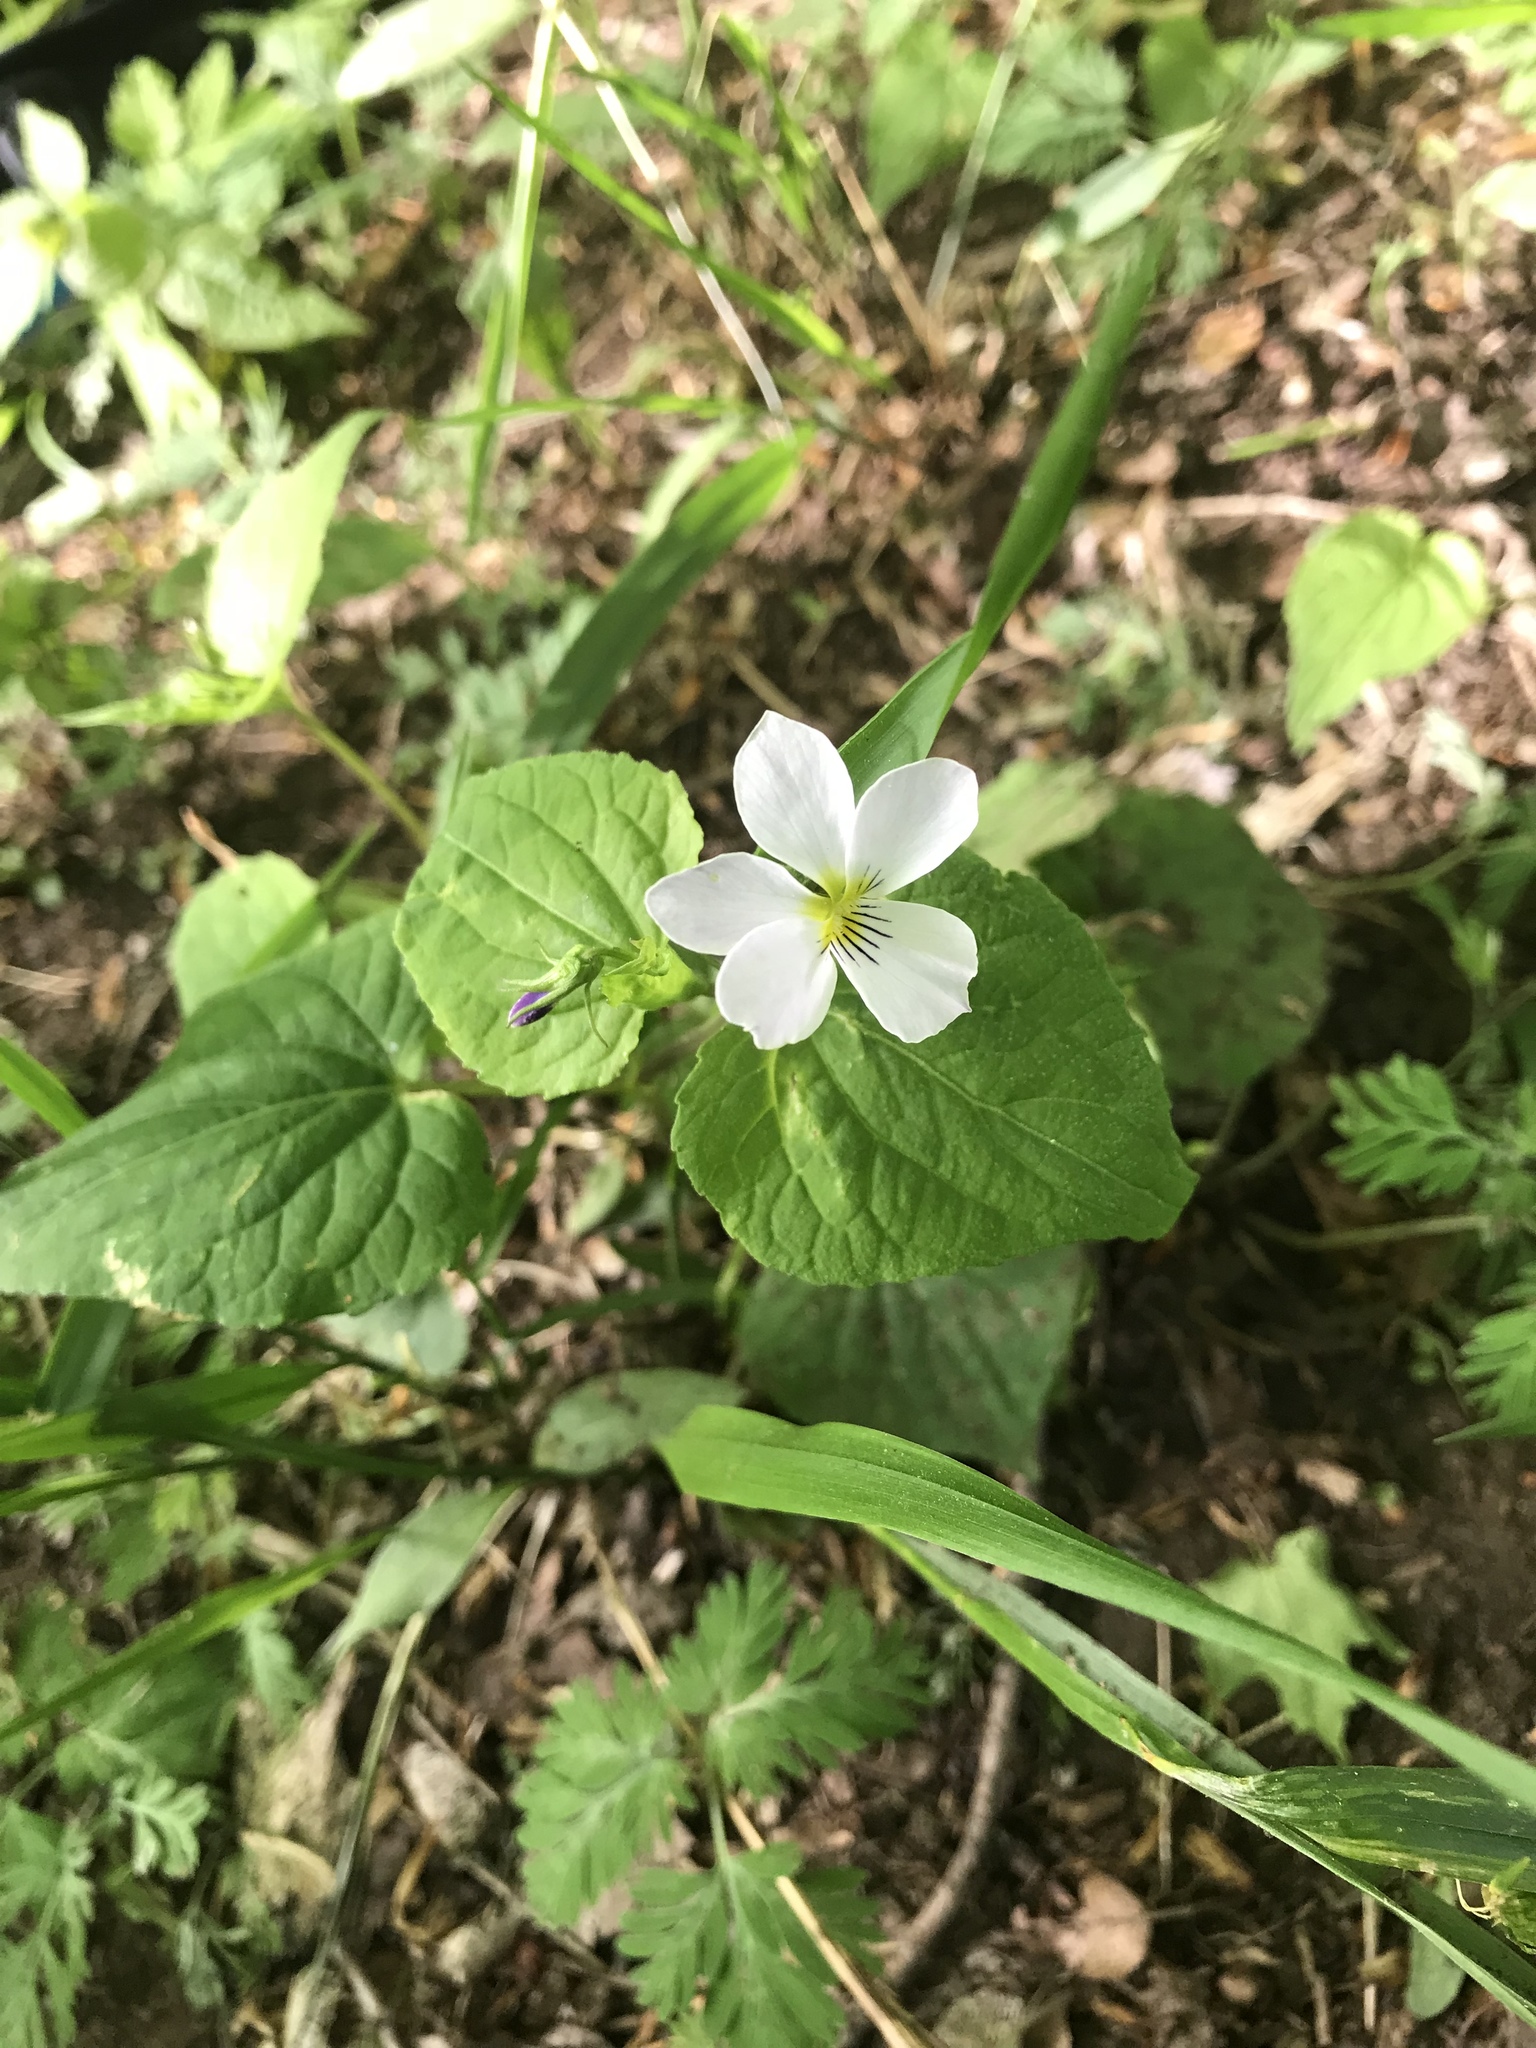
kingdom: Plantae
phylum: Tracheophyta
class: Magnoliopsida
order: Malpighiales
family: Violaceae
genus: Viola
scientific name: Viola canadensis
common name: Canada violet
